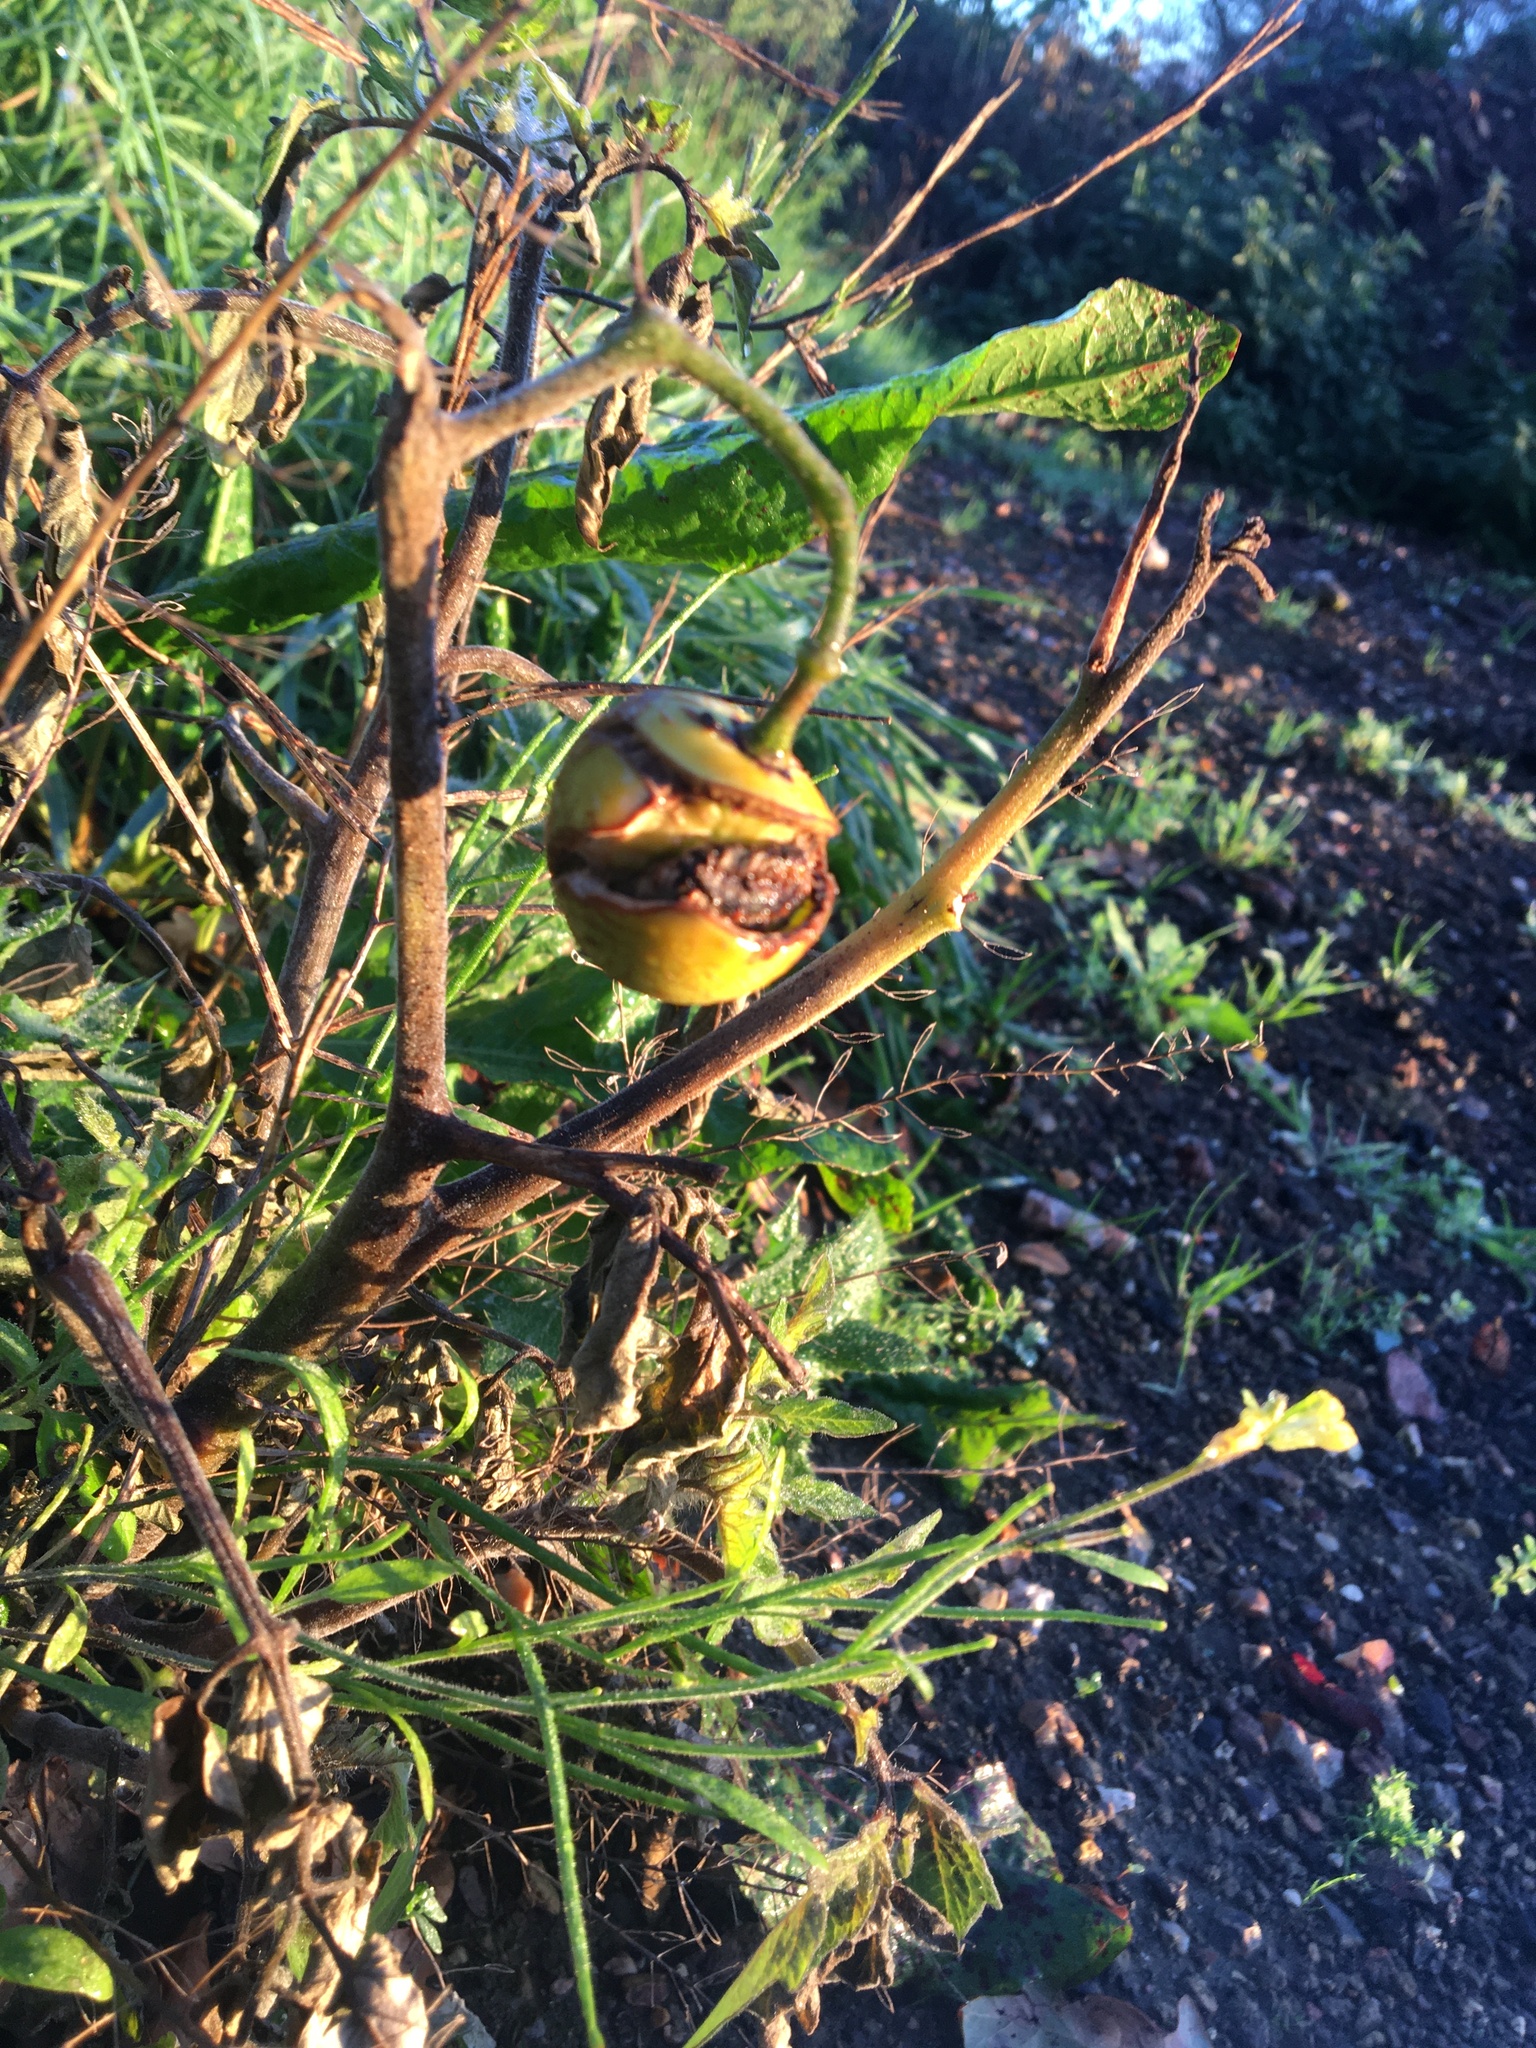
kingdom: Plantae
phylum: Tracheophyta
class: Magnoliopsida
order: Solanales
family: Solanaceae
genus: Solanum
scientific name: Solanum lycopersicum
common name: Garden tomato
